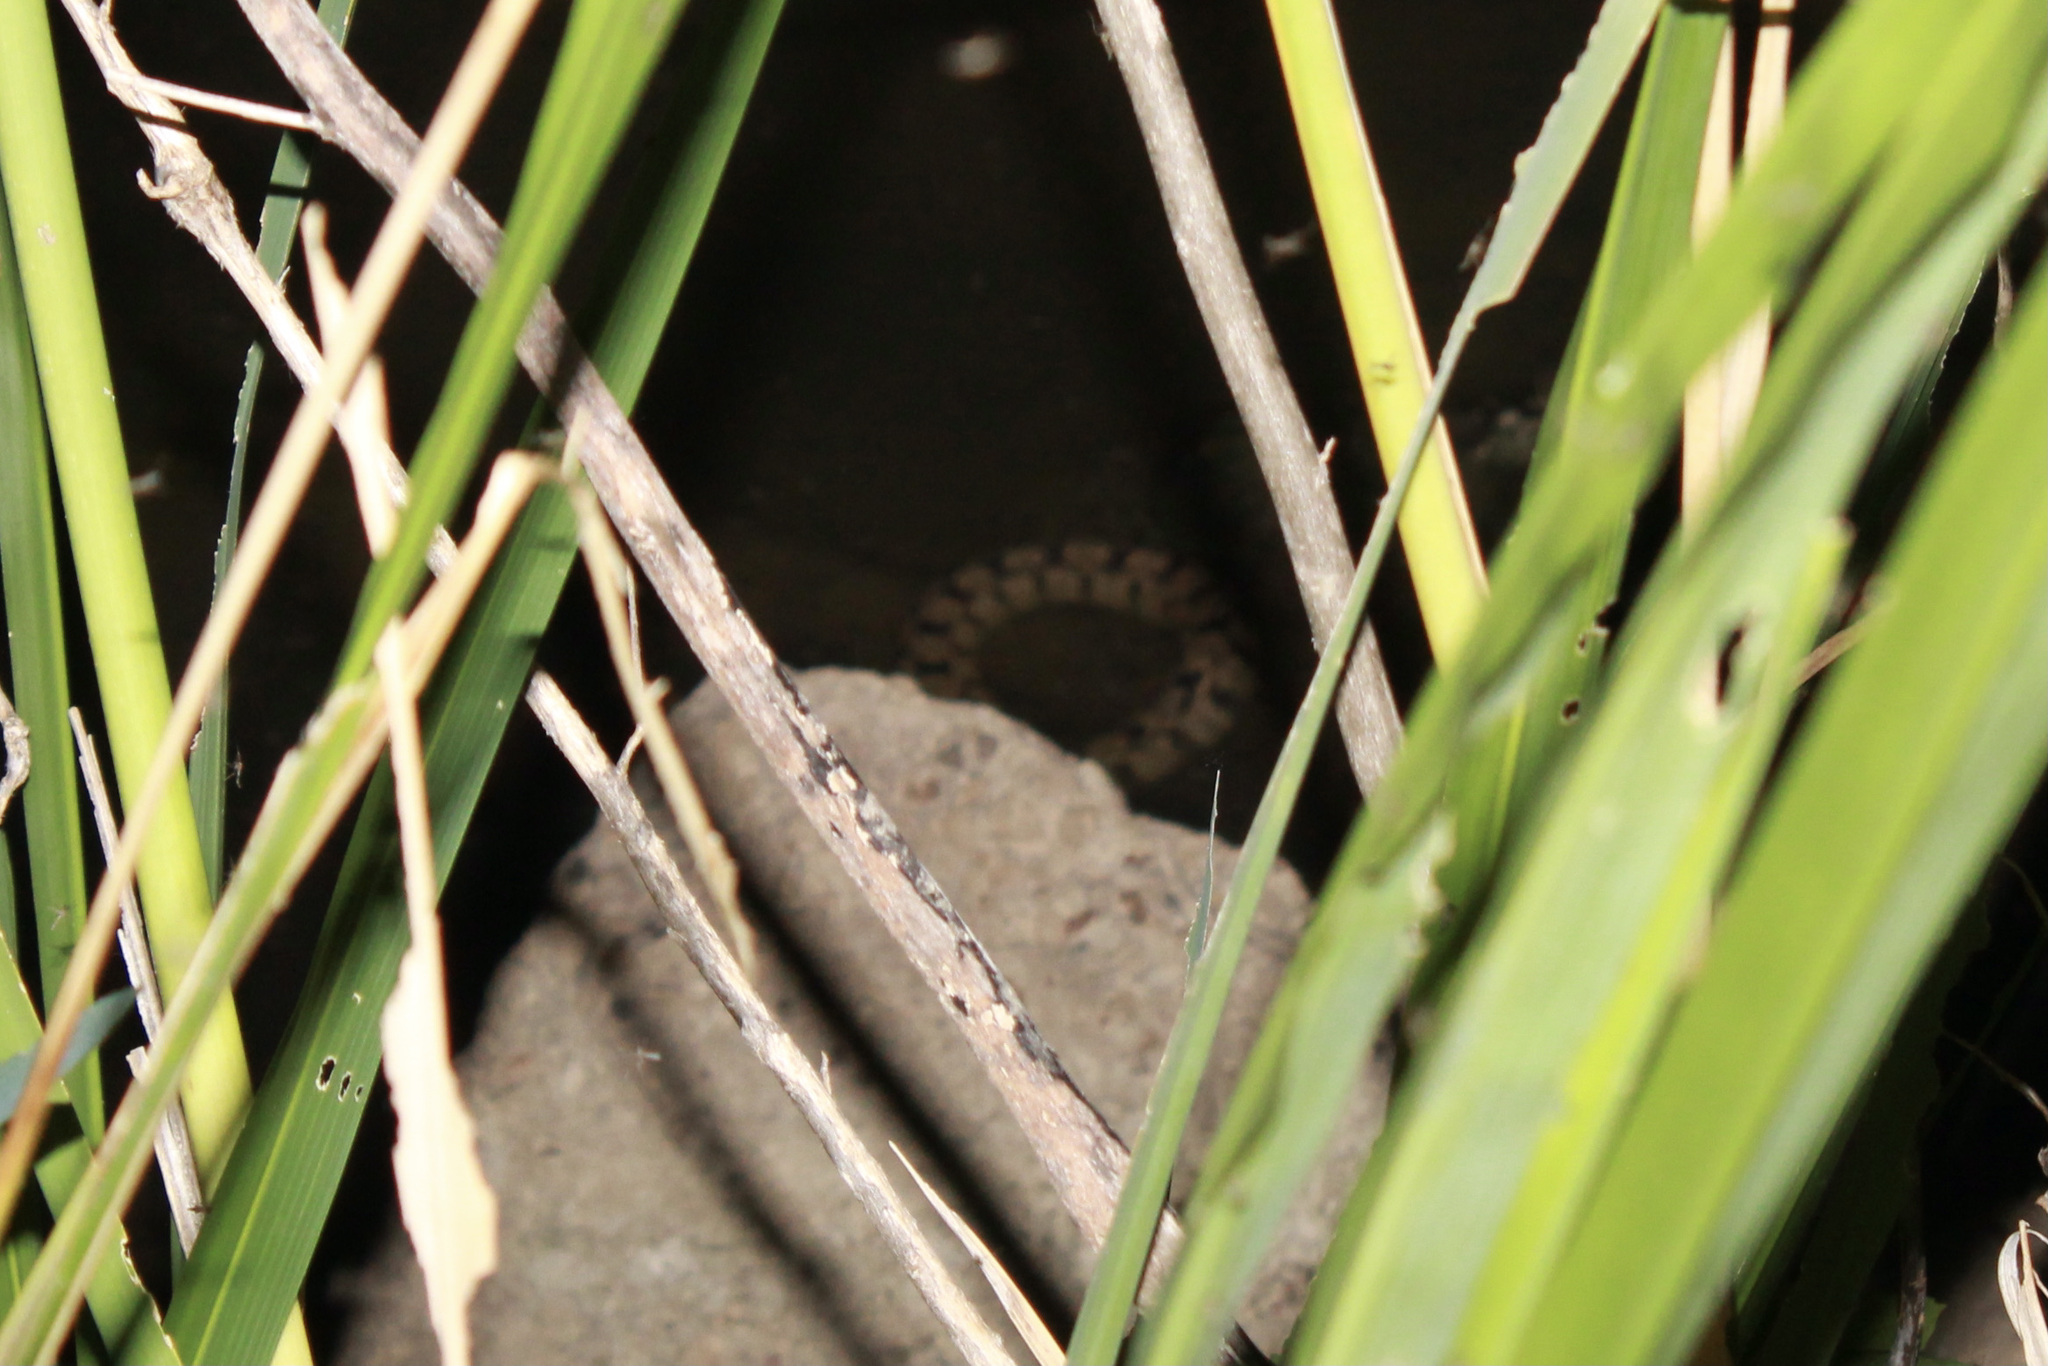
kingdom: Animalia
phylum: Chordata
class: Squamata
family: Colubridae
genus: Nerodia
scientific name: Nerodia rhombifer
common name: Diamondback water snake
